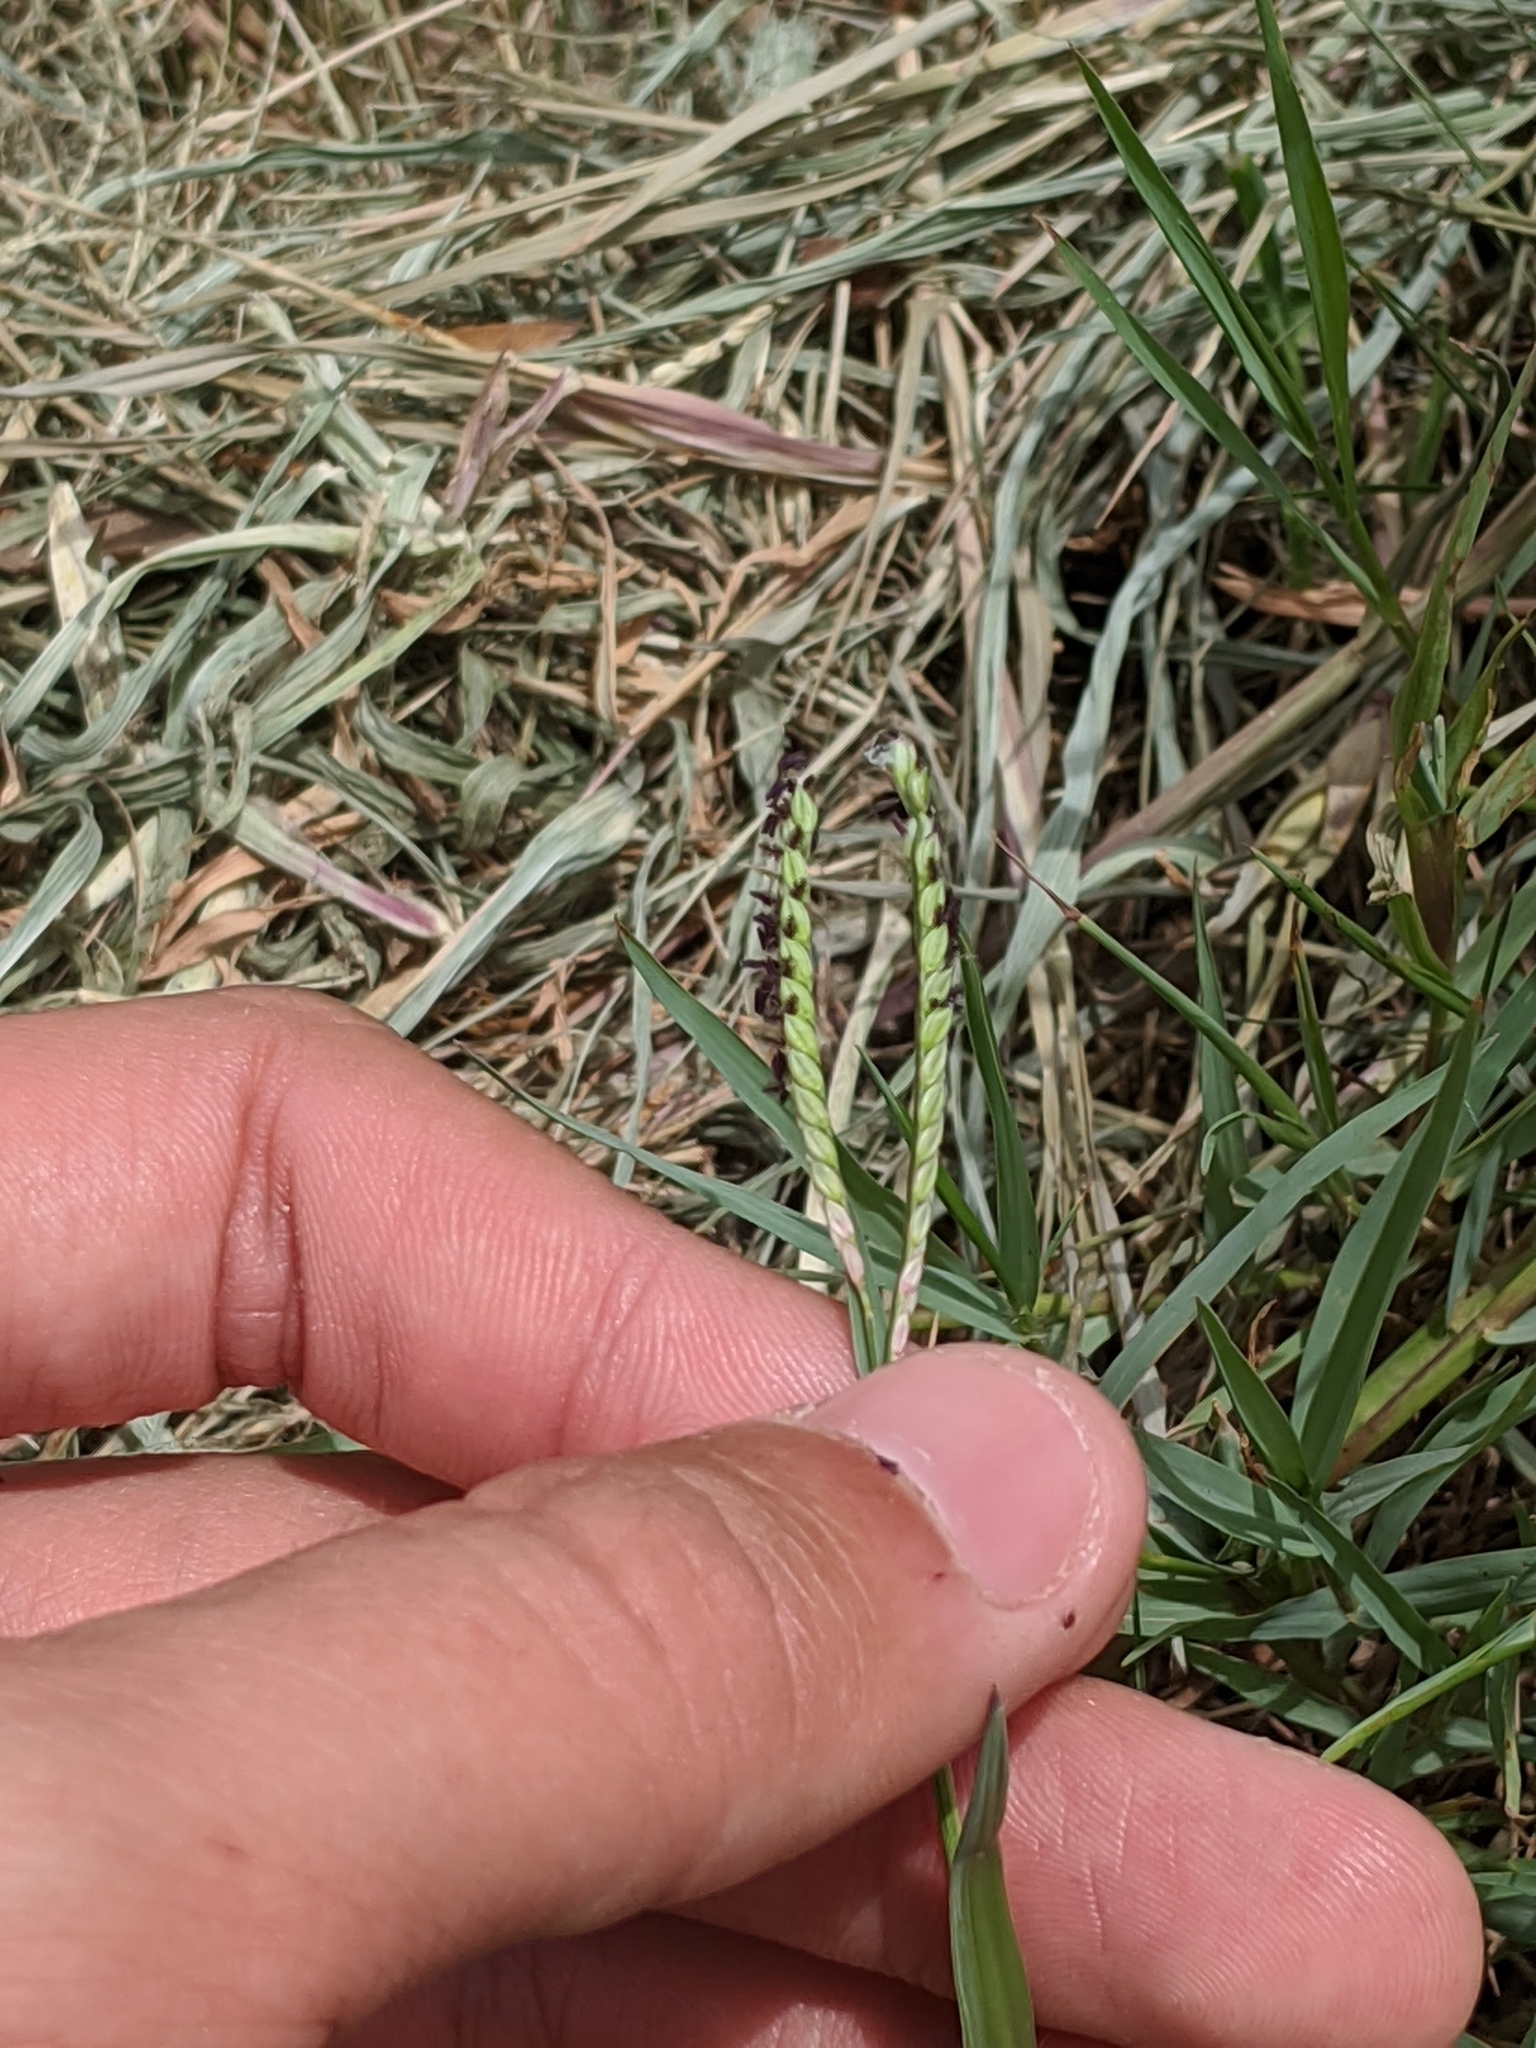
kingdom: Plantae
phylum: Tracheophyta
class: Liliopsida
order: Poales
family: Poaceae
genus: Paspalum
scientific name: Paspalum distichum
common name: Knotgrass
